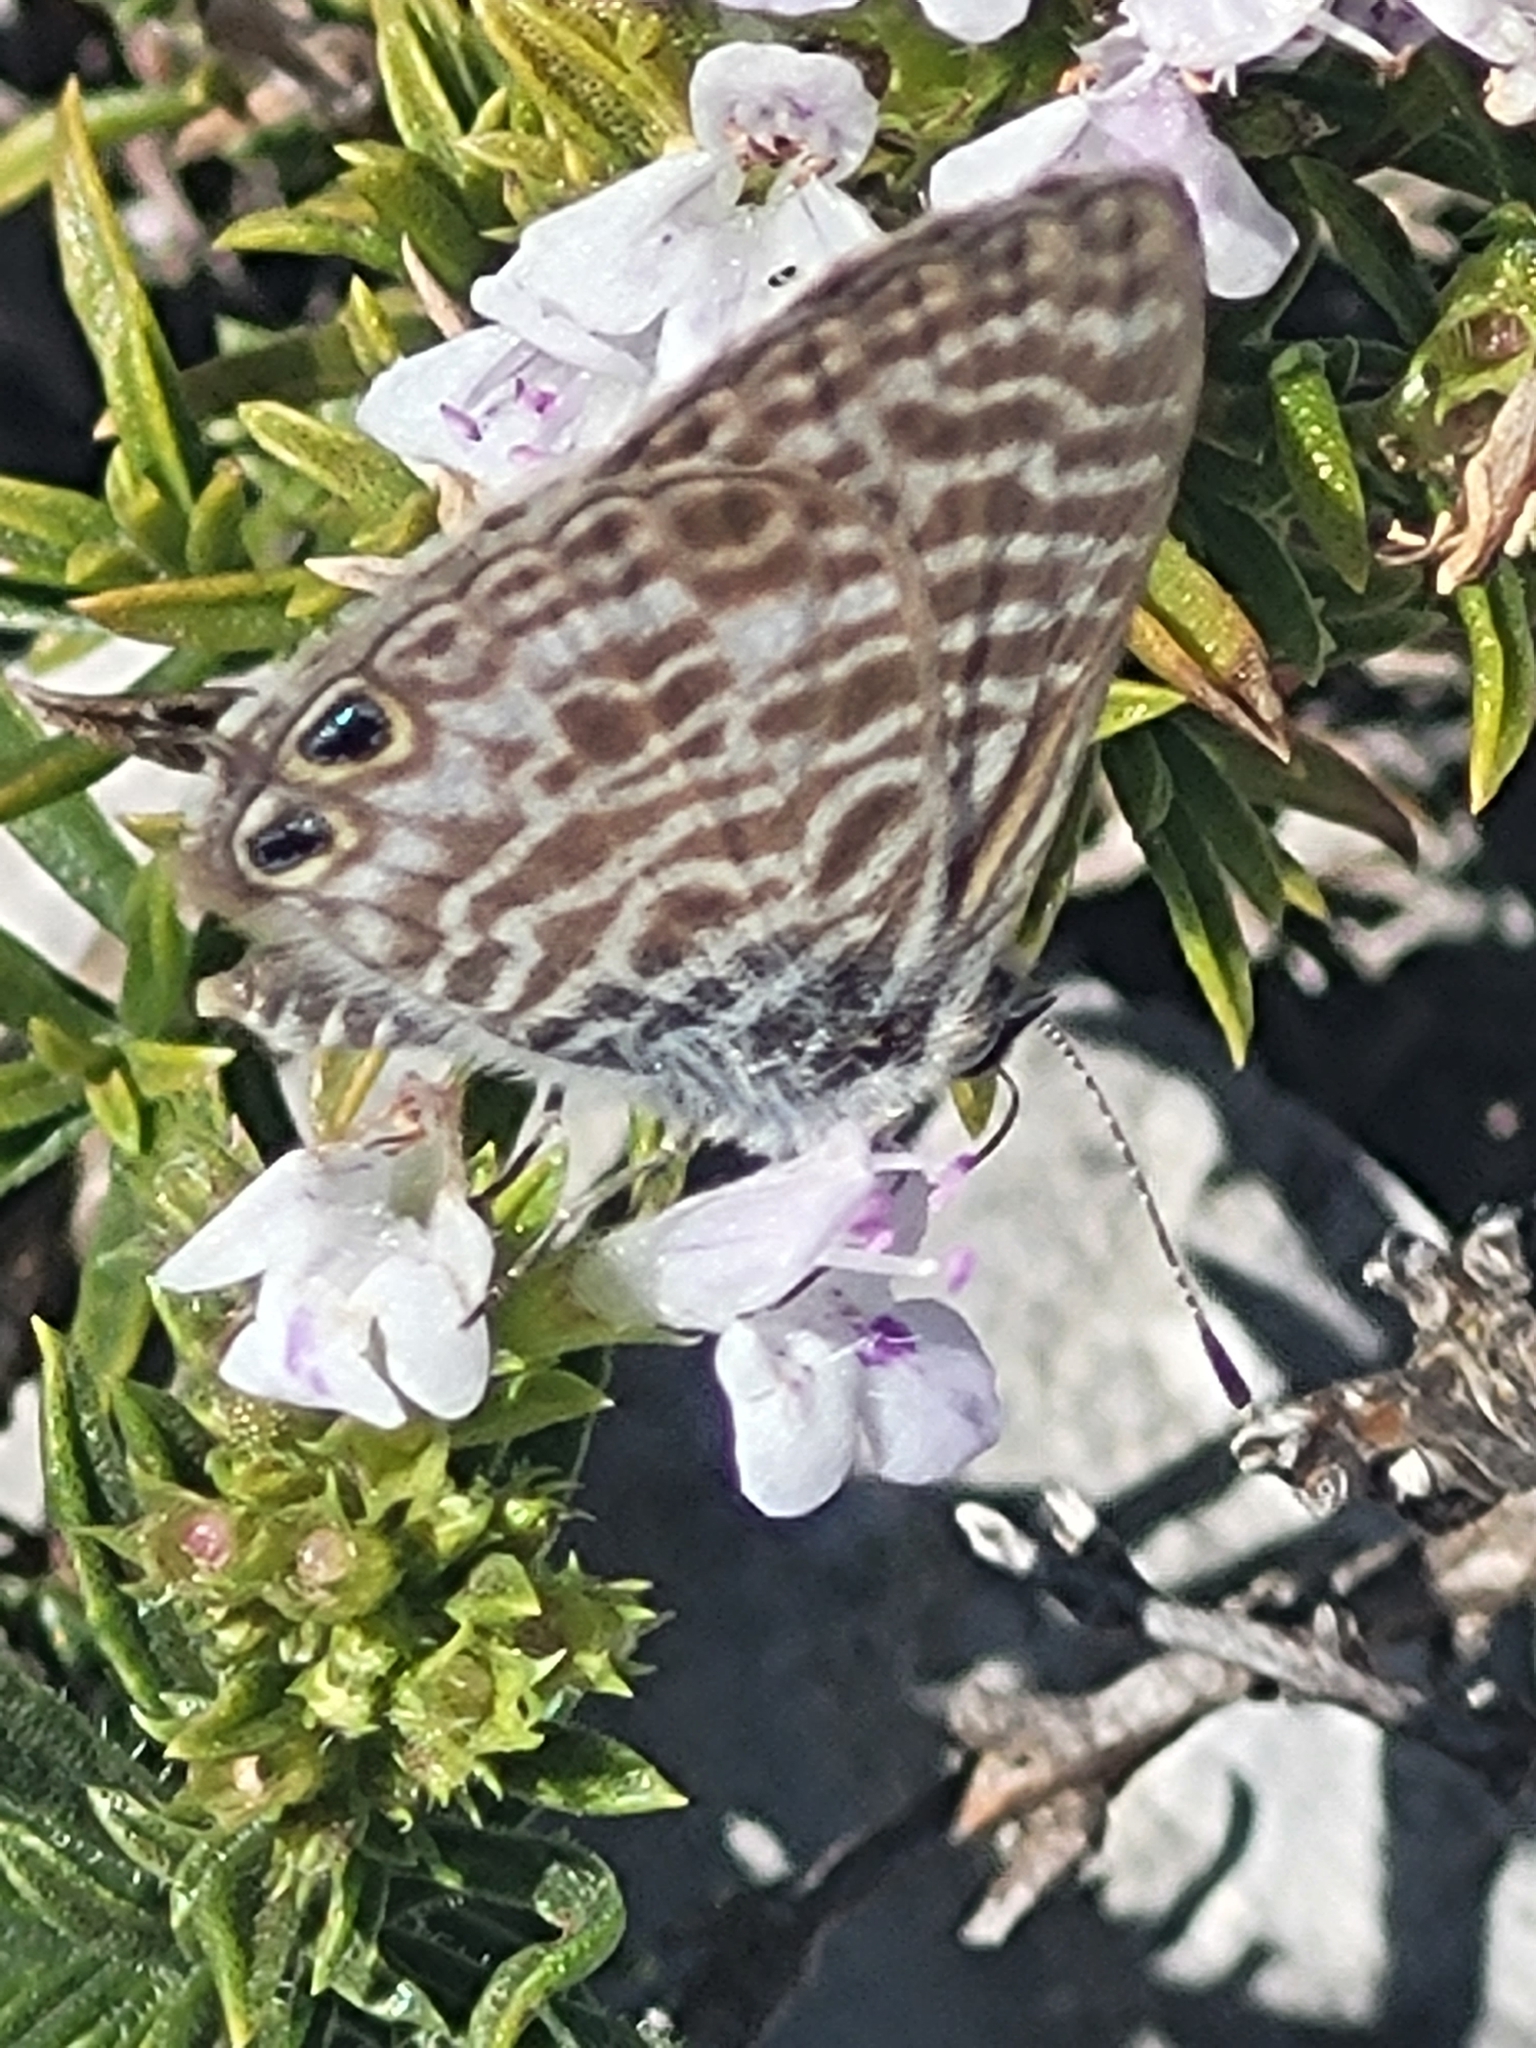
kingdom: Animalia
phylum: Arthropoda
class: Insecta
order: Lepidoptera
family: Lycaenidae
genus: Leptotes
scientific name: Leptotes pirithous
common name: Lang's short-tailed blue
